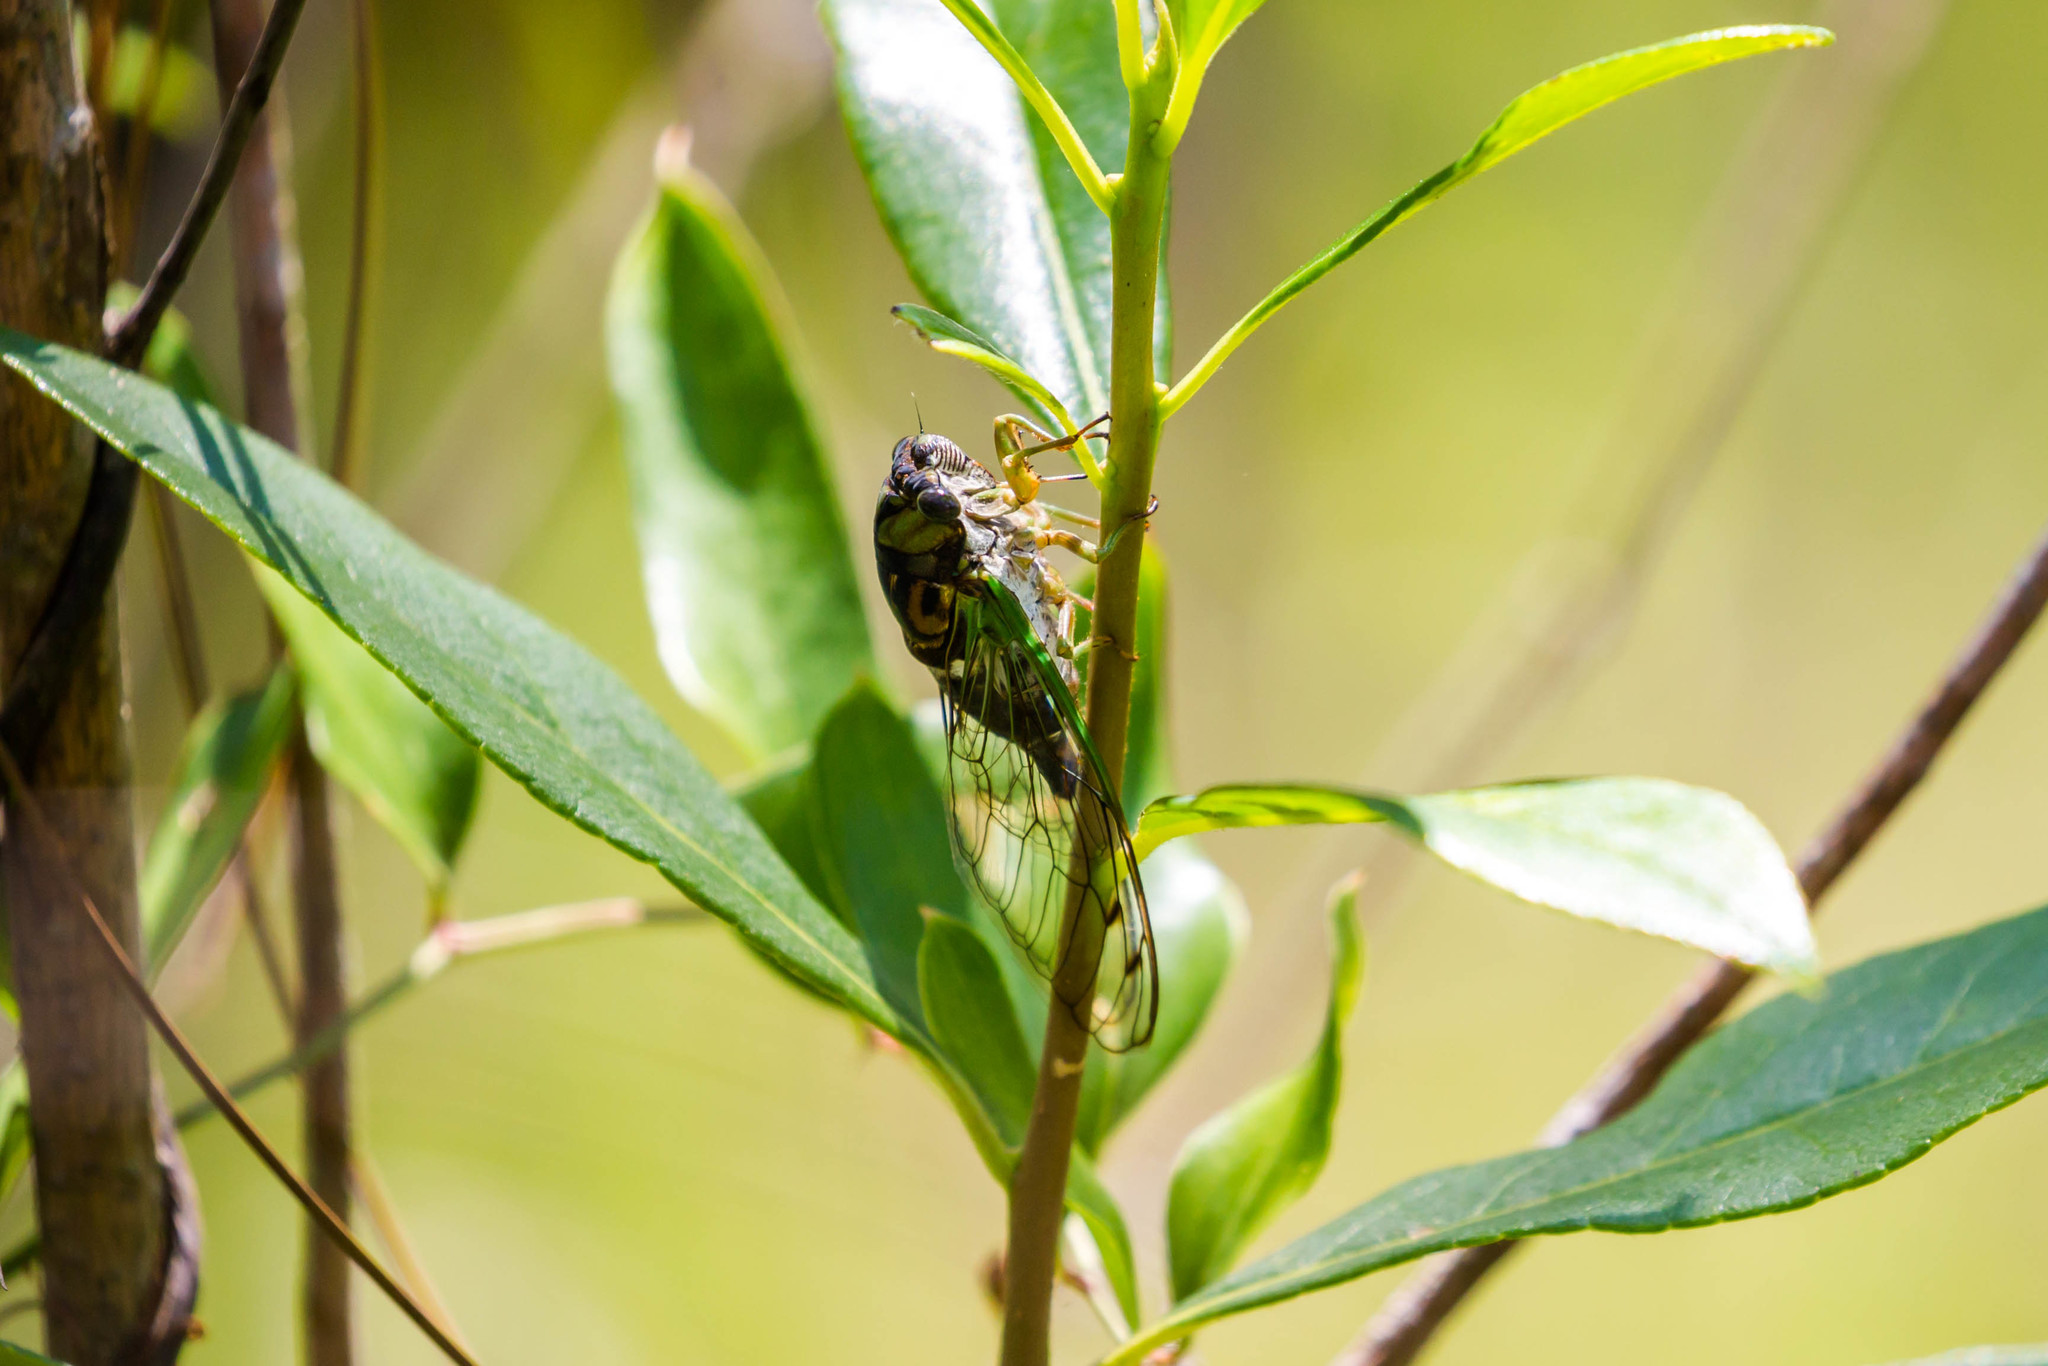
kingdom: Animalia
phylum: Arthropoda
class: Insecta
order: Hemiptera
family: Cicadidae
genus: Neotibicen
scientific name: Neotibicen tibicen
